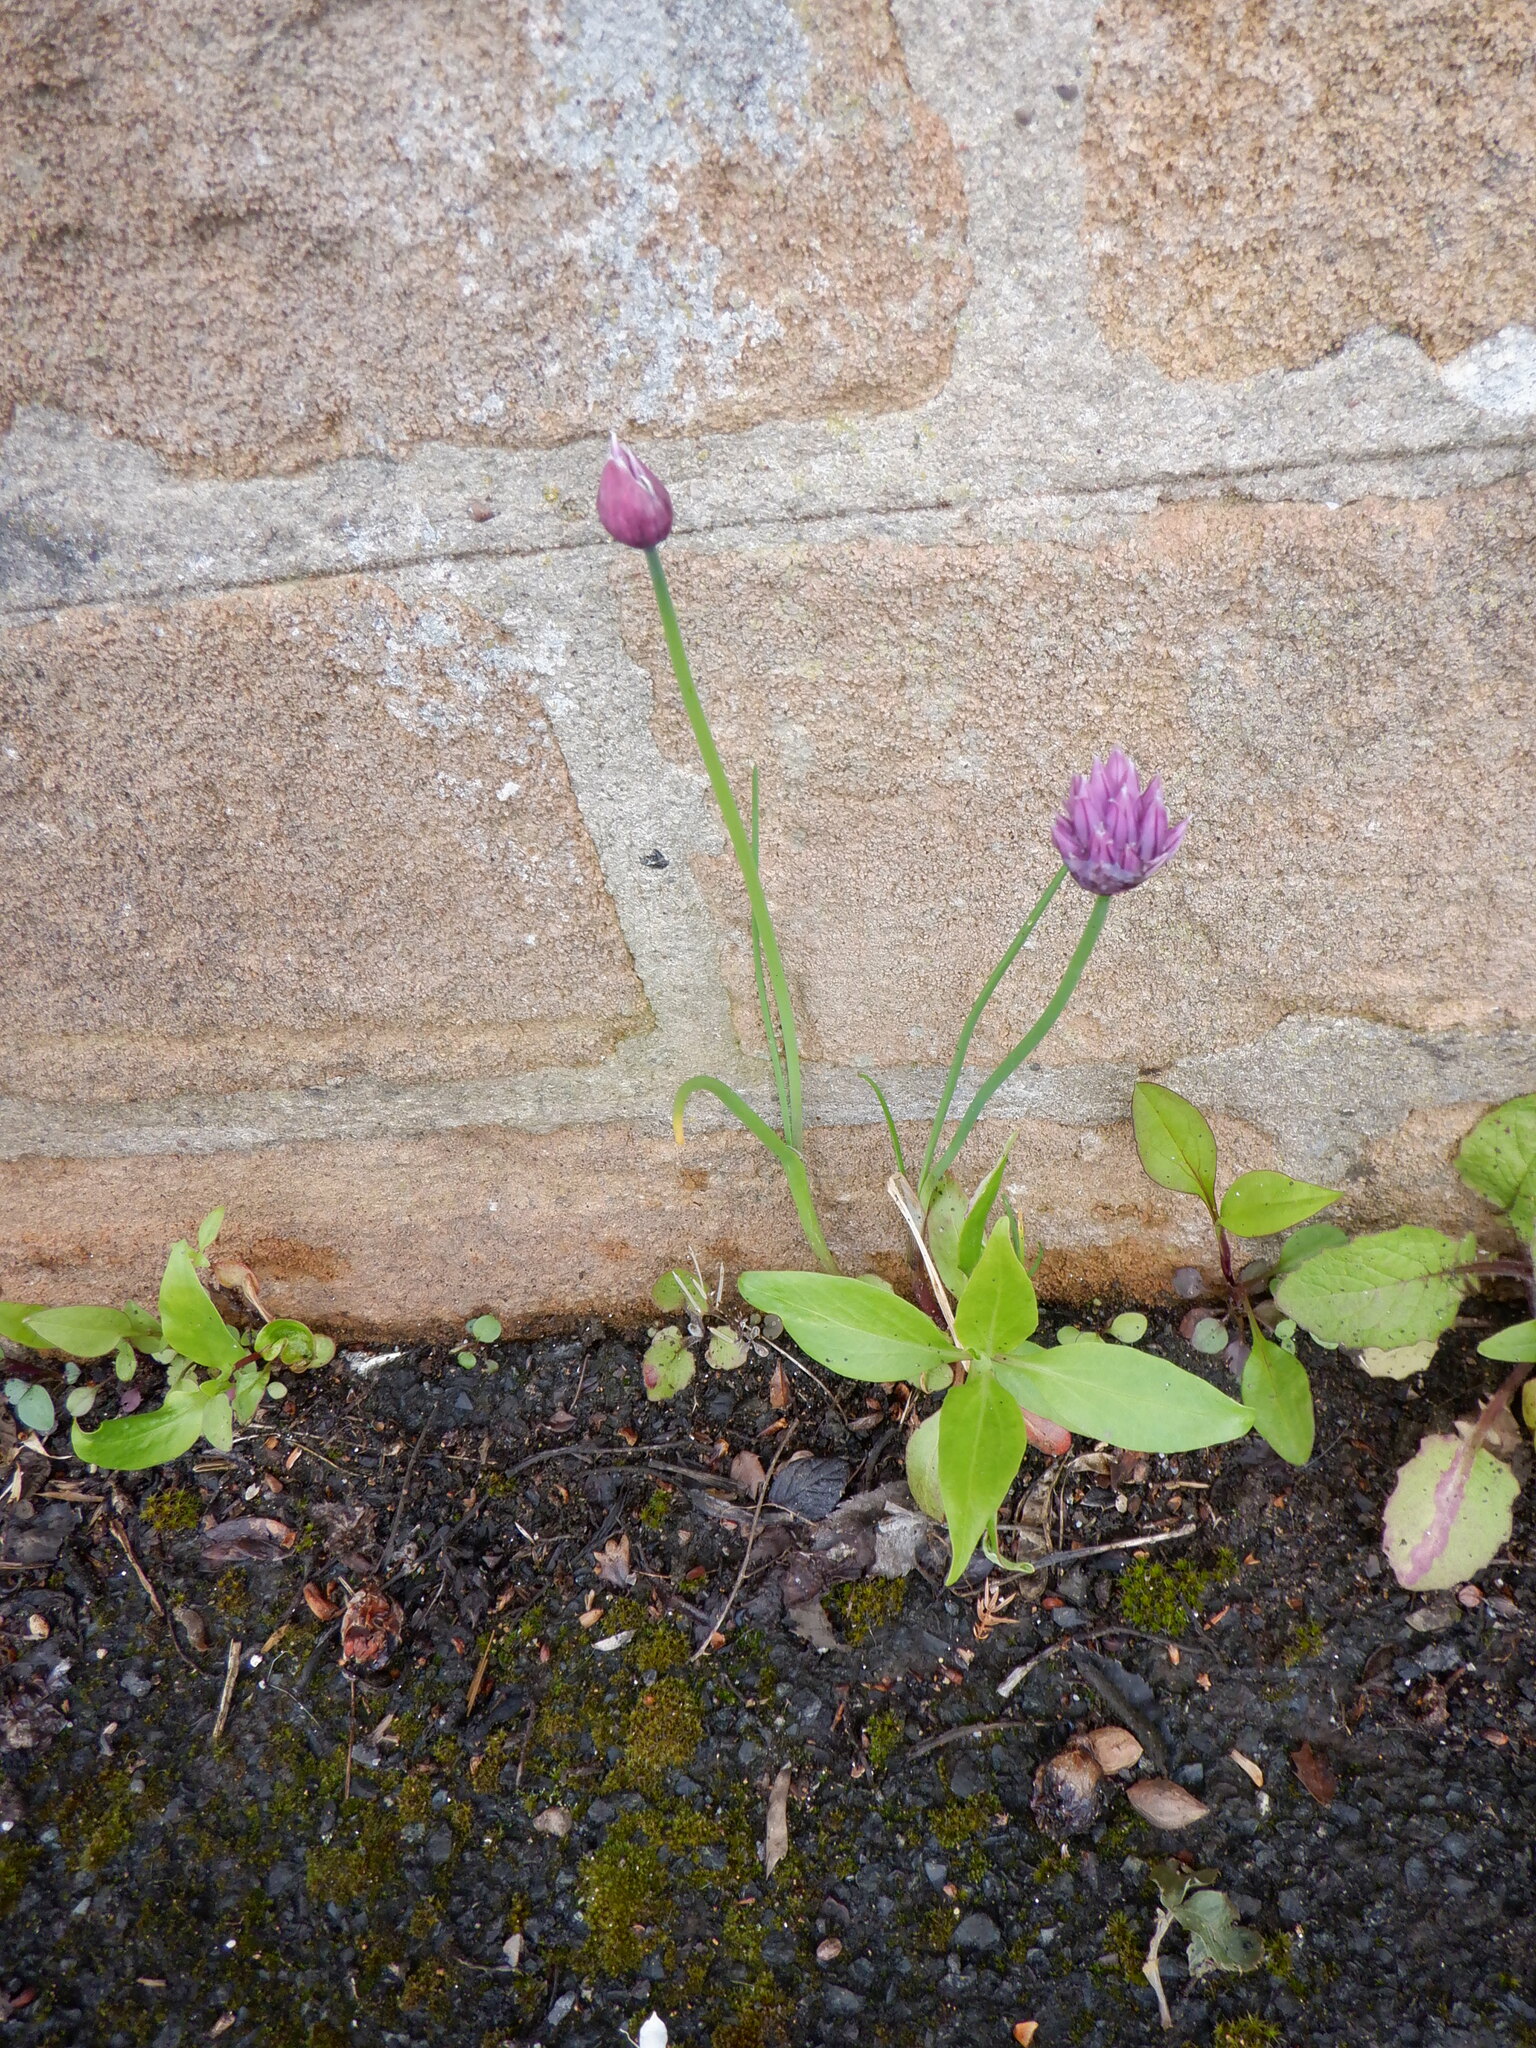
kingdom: Plantae
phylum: Tracheophyta
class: Liliopsida
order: Asparagales
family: Amaryllidaceae
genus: Allium
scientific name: Allium schoenoprasum
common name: Chives
